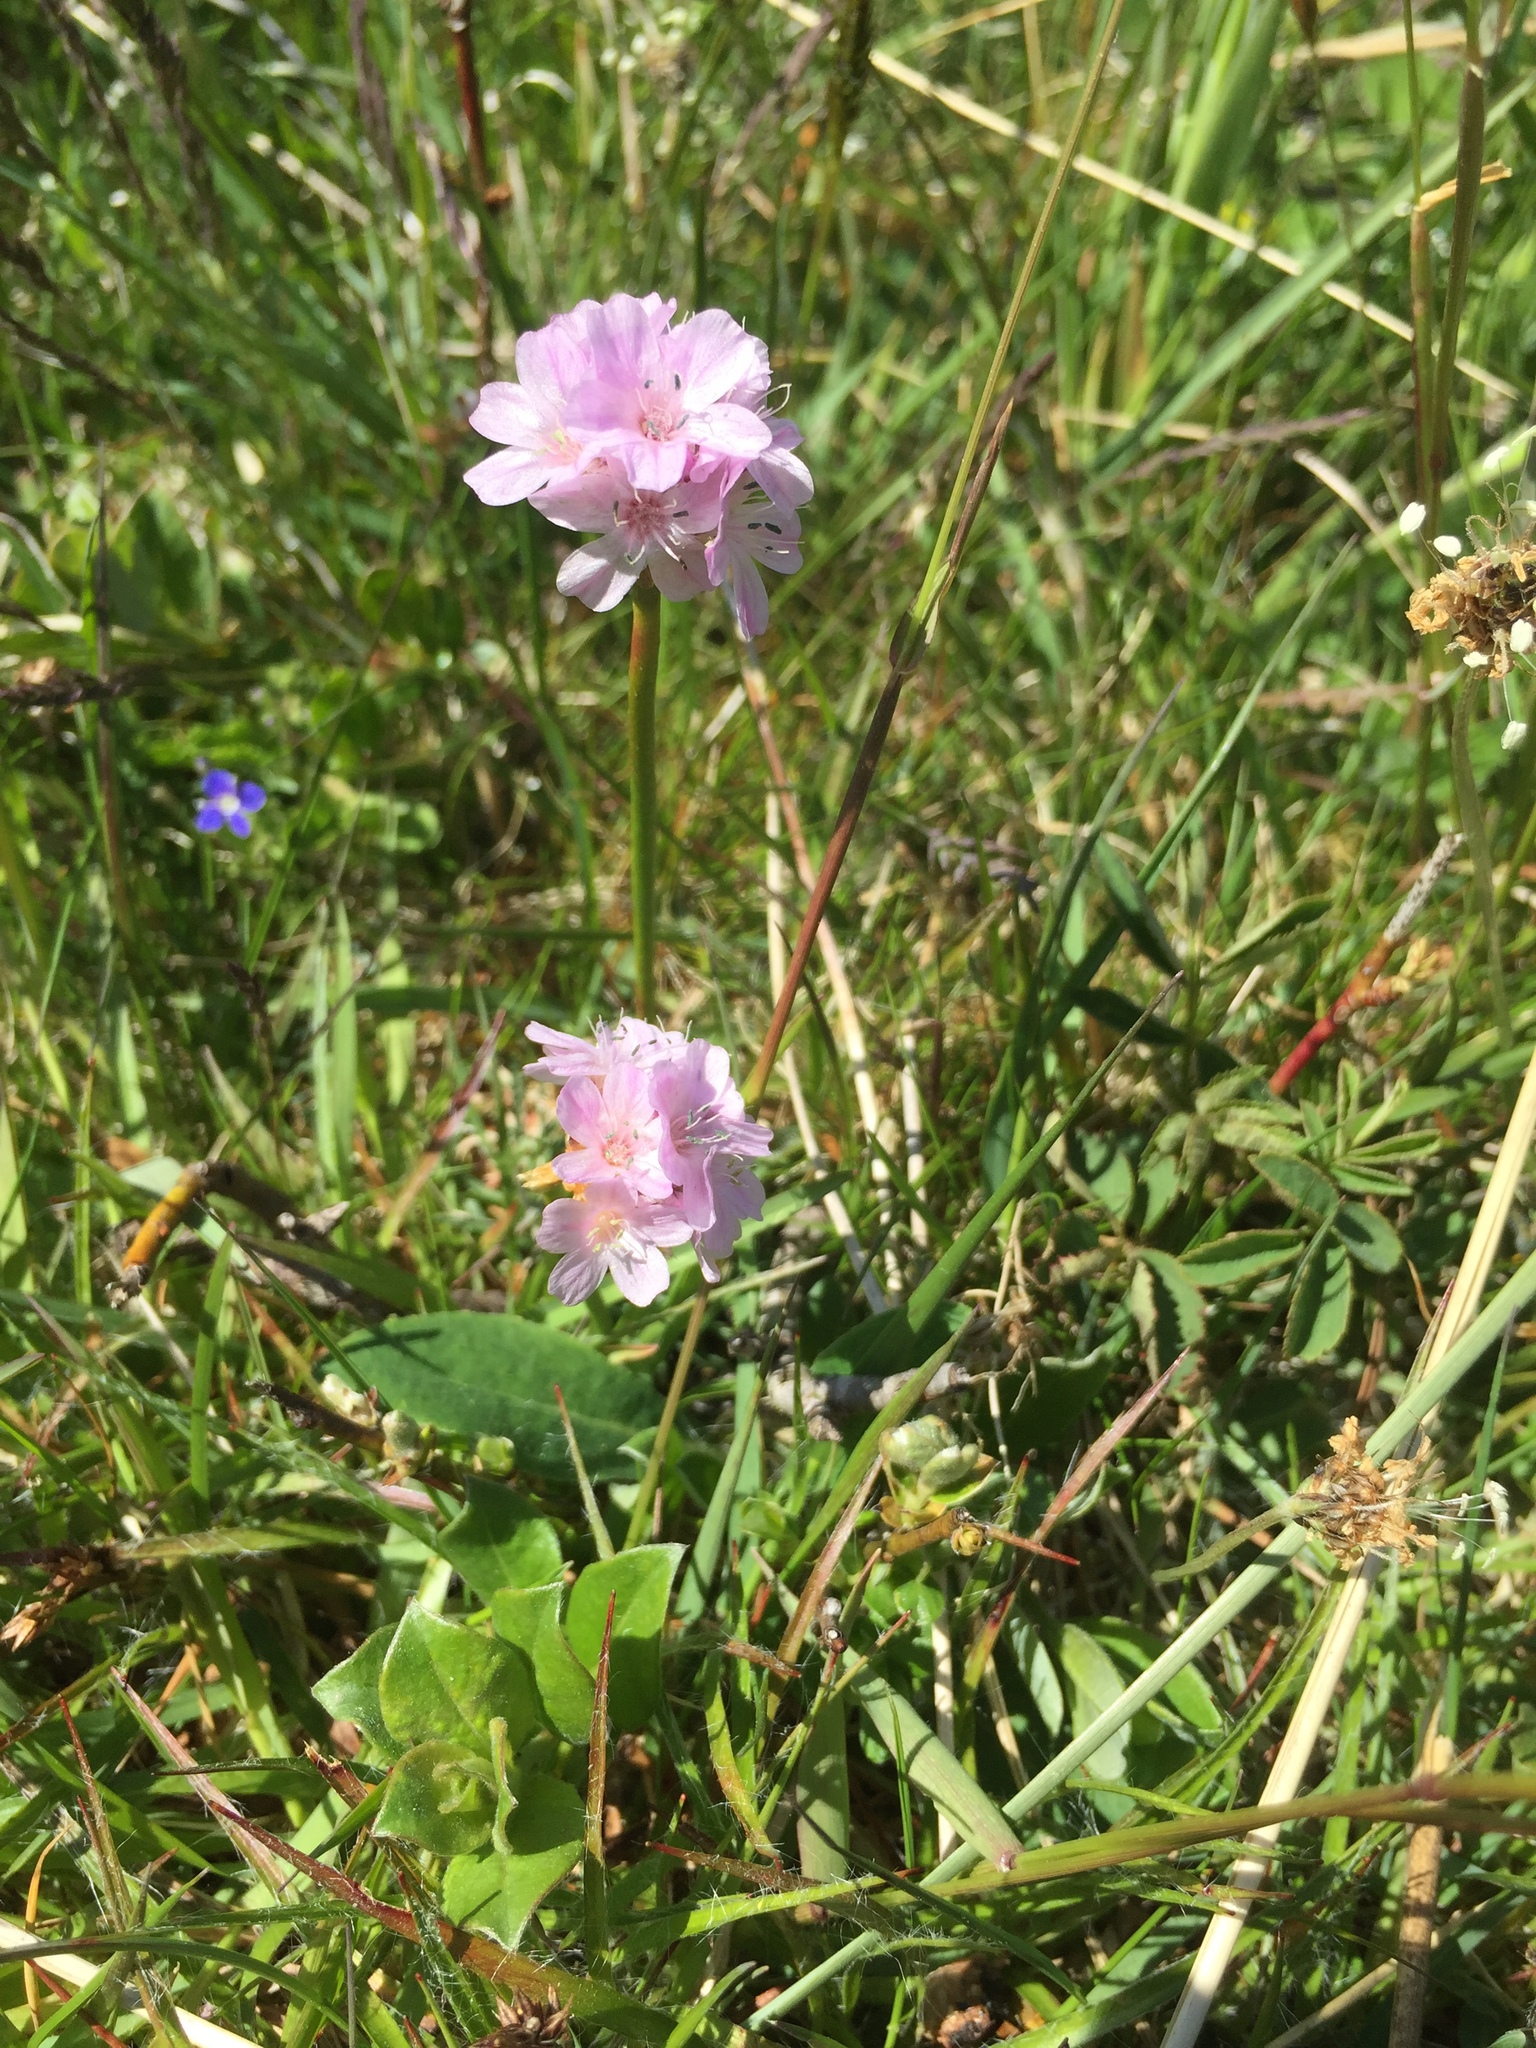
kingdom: Plantae
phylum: Tracheophyta
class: Magnoliopsida
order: Caryophyllales
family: Plumbaginaceae
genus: Armeria
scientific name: Armeria maritima
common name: Thrift
